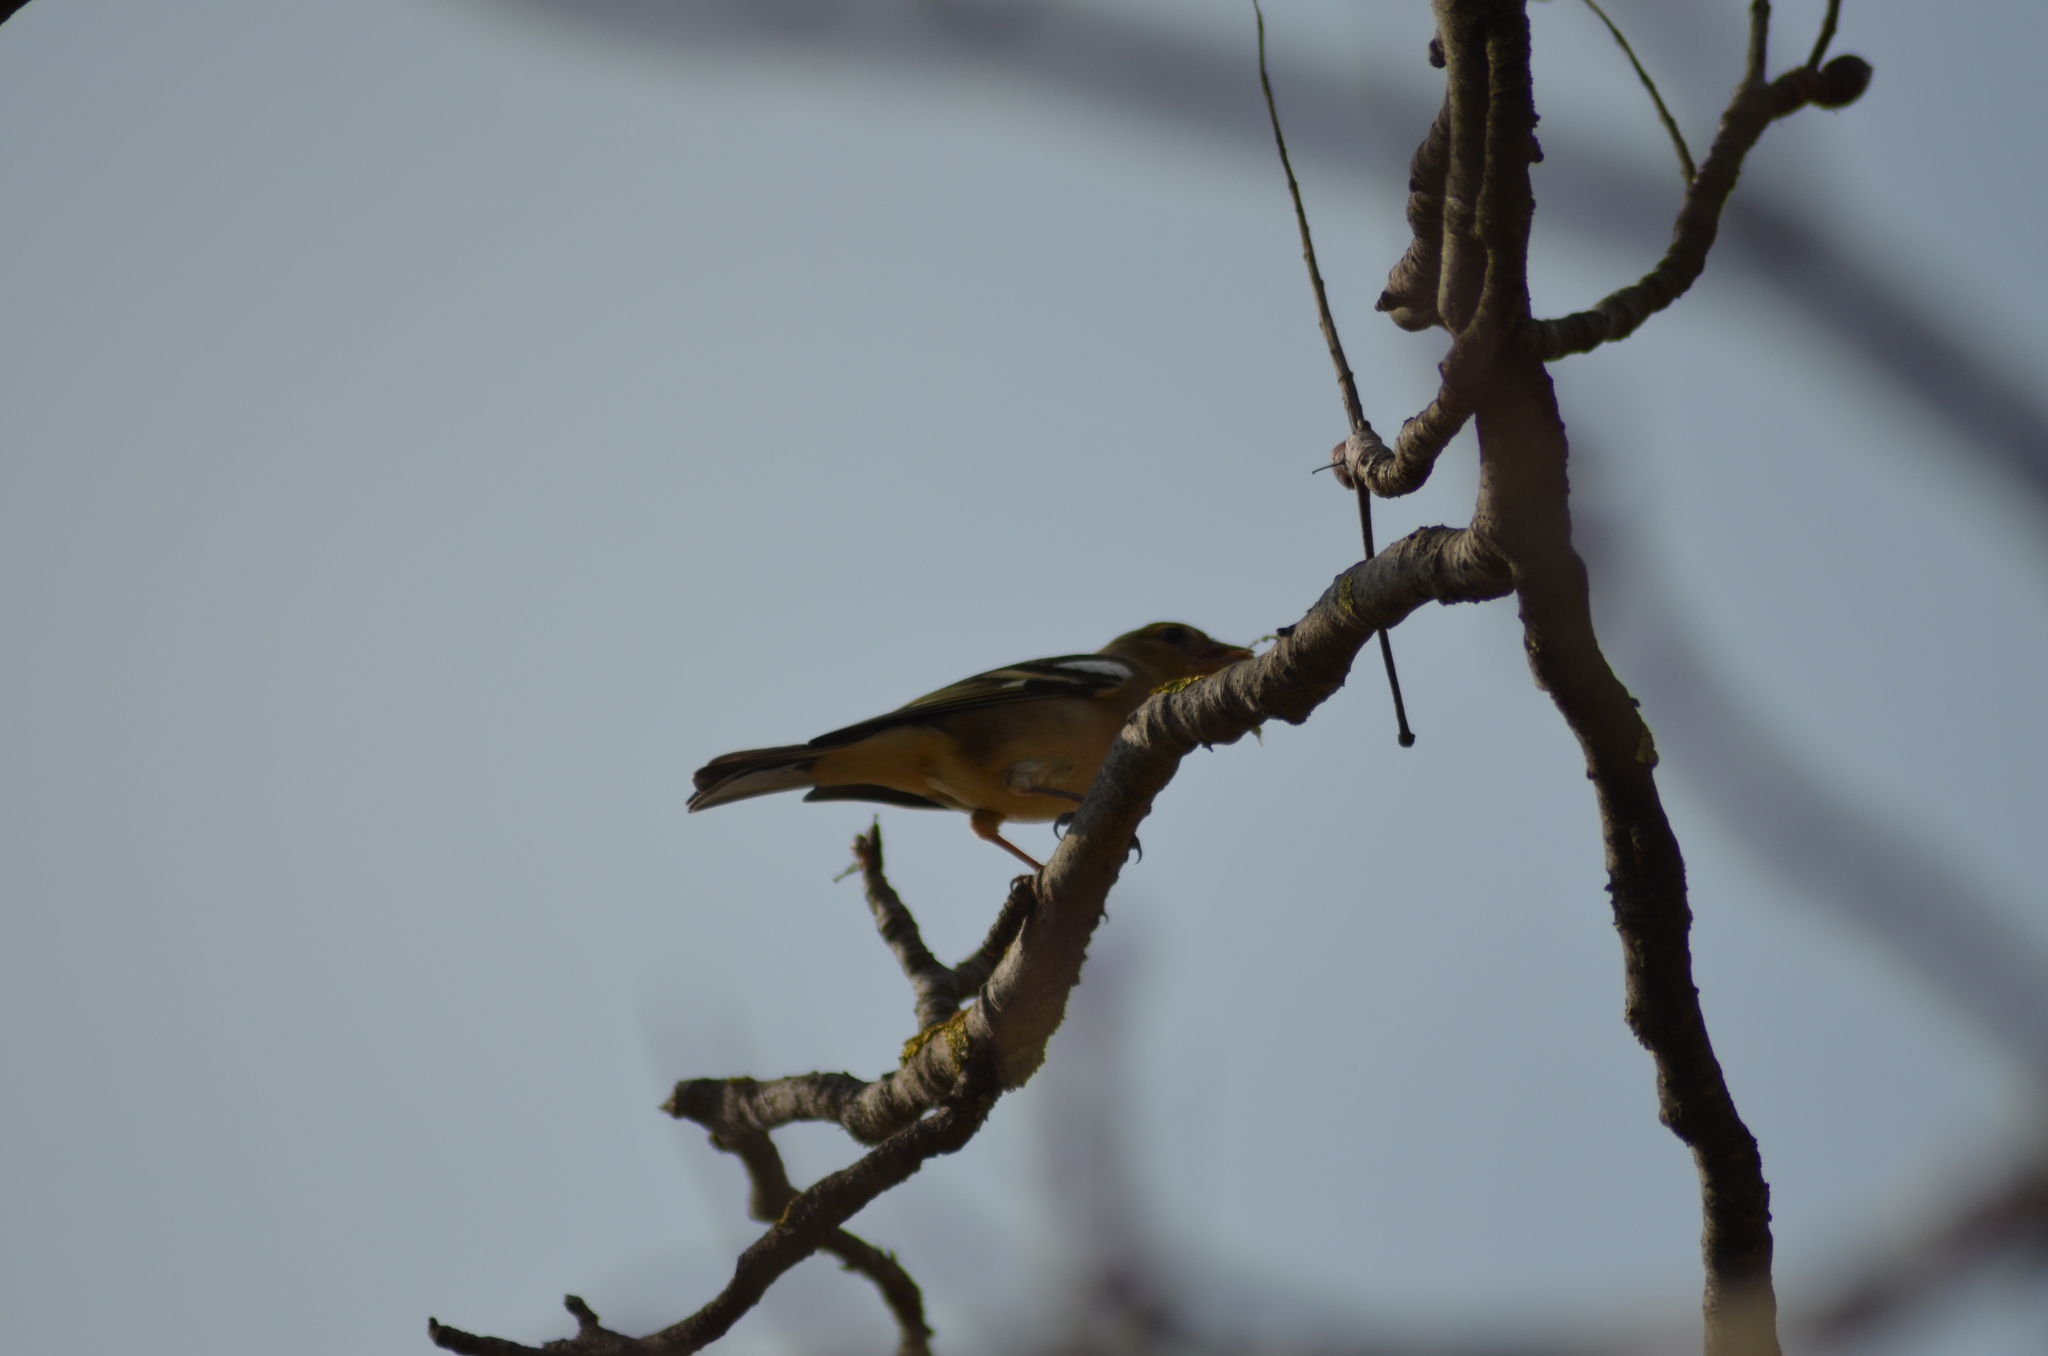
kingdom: Animalia
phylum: Chordata
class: Aves
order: Passeriformes
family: Fringillidae
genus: Fringilla
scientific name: Fringilla coelebs
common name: Common chaffinch
